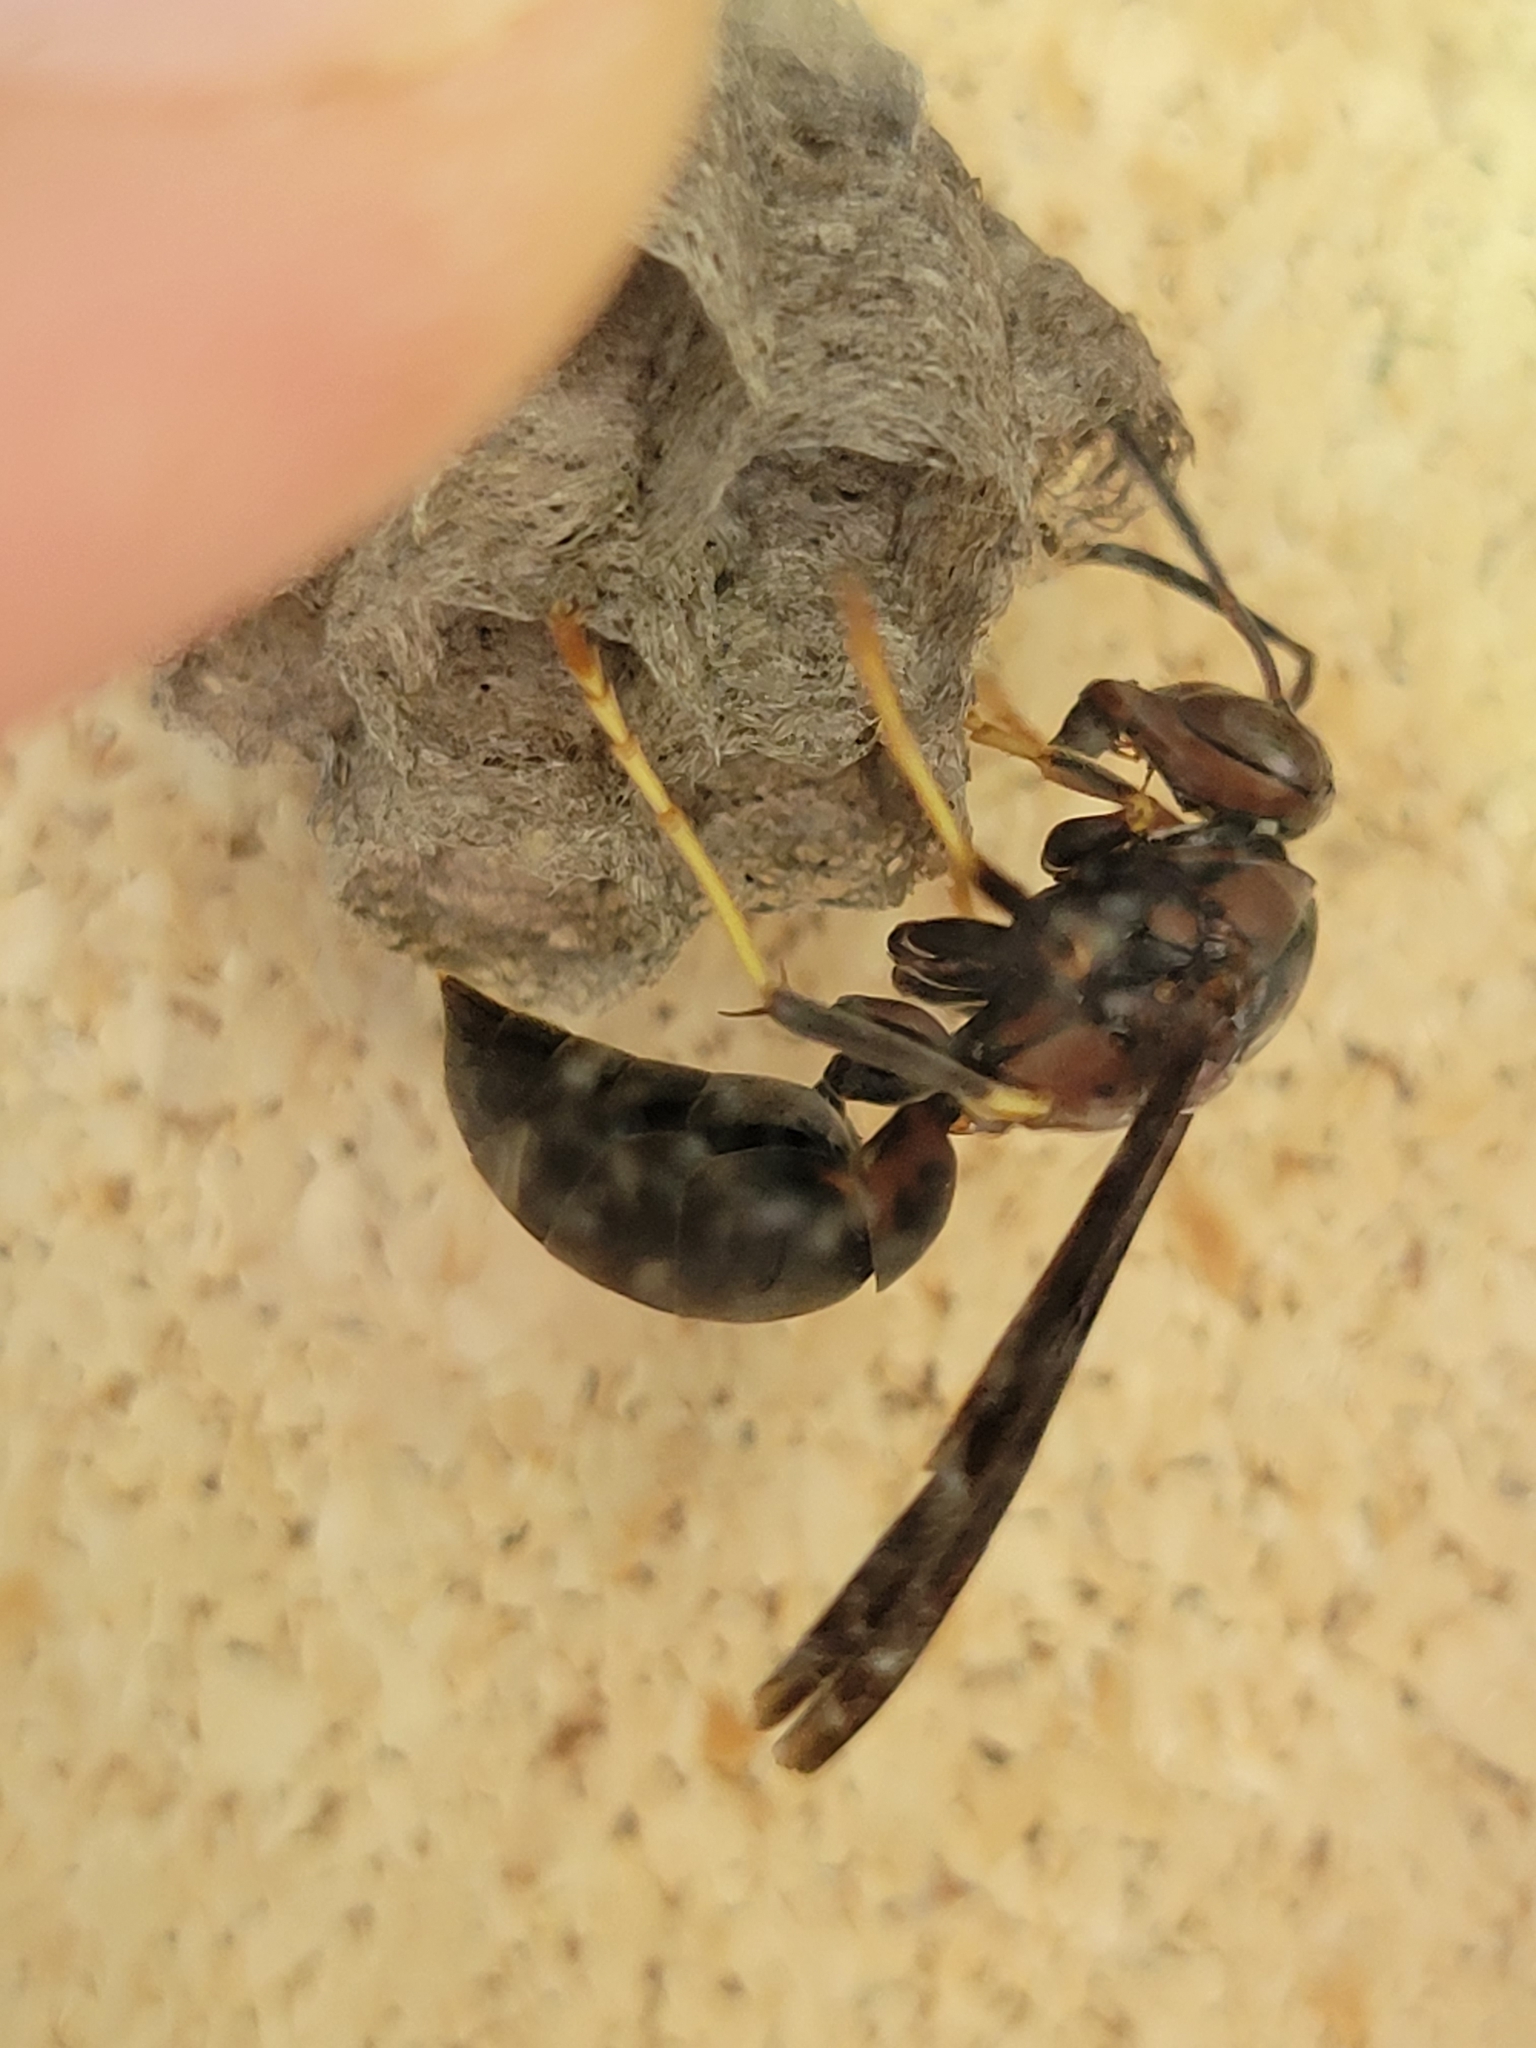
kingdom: Animalia
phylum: Arthropoda
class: Insecta
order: Hymenoptera
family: Eumenidae
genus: Polistes
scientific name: Polistes metricus
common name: Metric paper wasp
